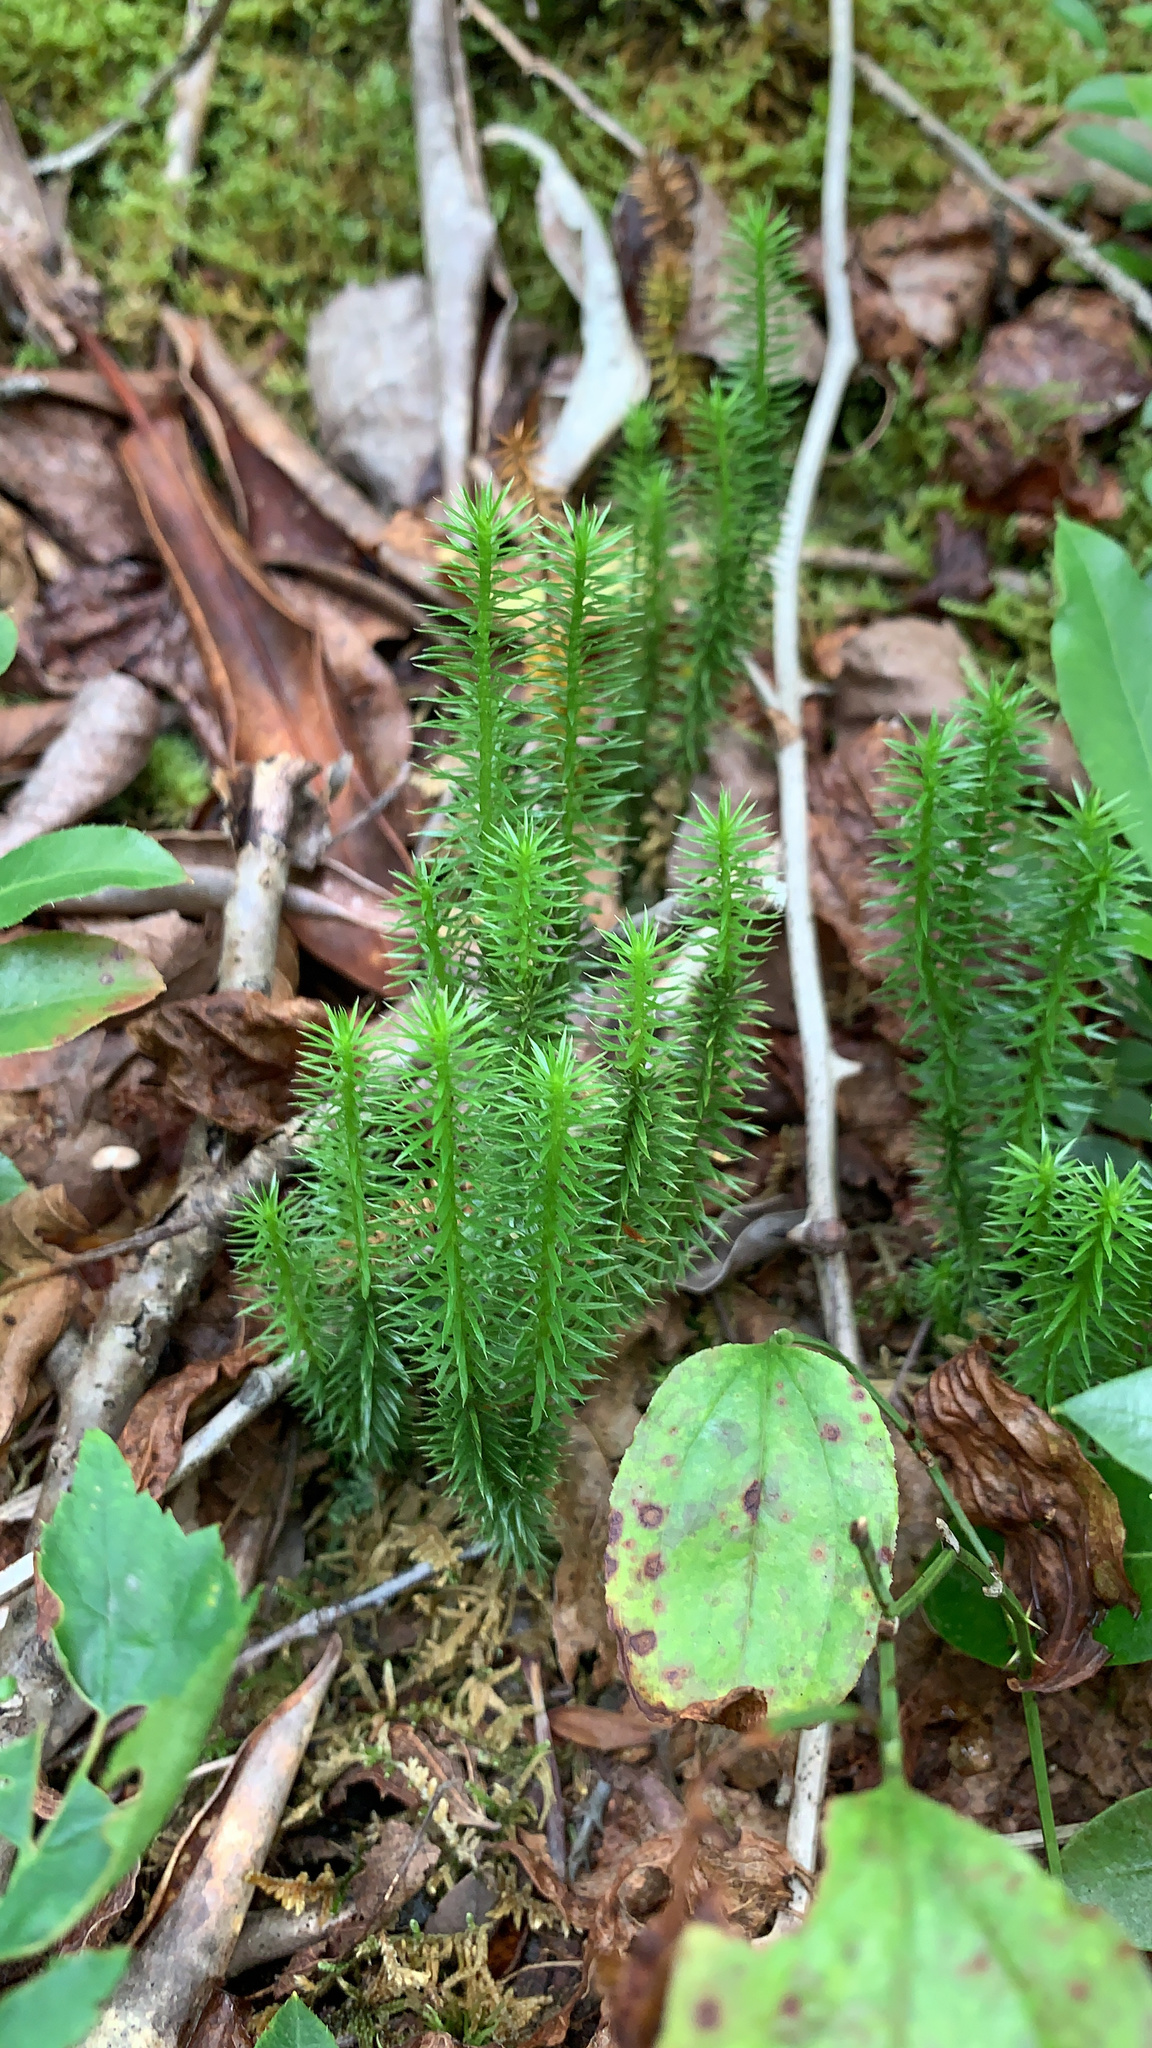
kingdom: Plantae
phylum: Tracheophyta
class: Lycopodiopsida
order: Lycopodiales
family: Lycopodiaceae
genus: Huperzia
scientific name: Huperzia lucidula
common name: Shining clubmoss
